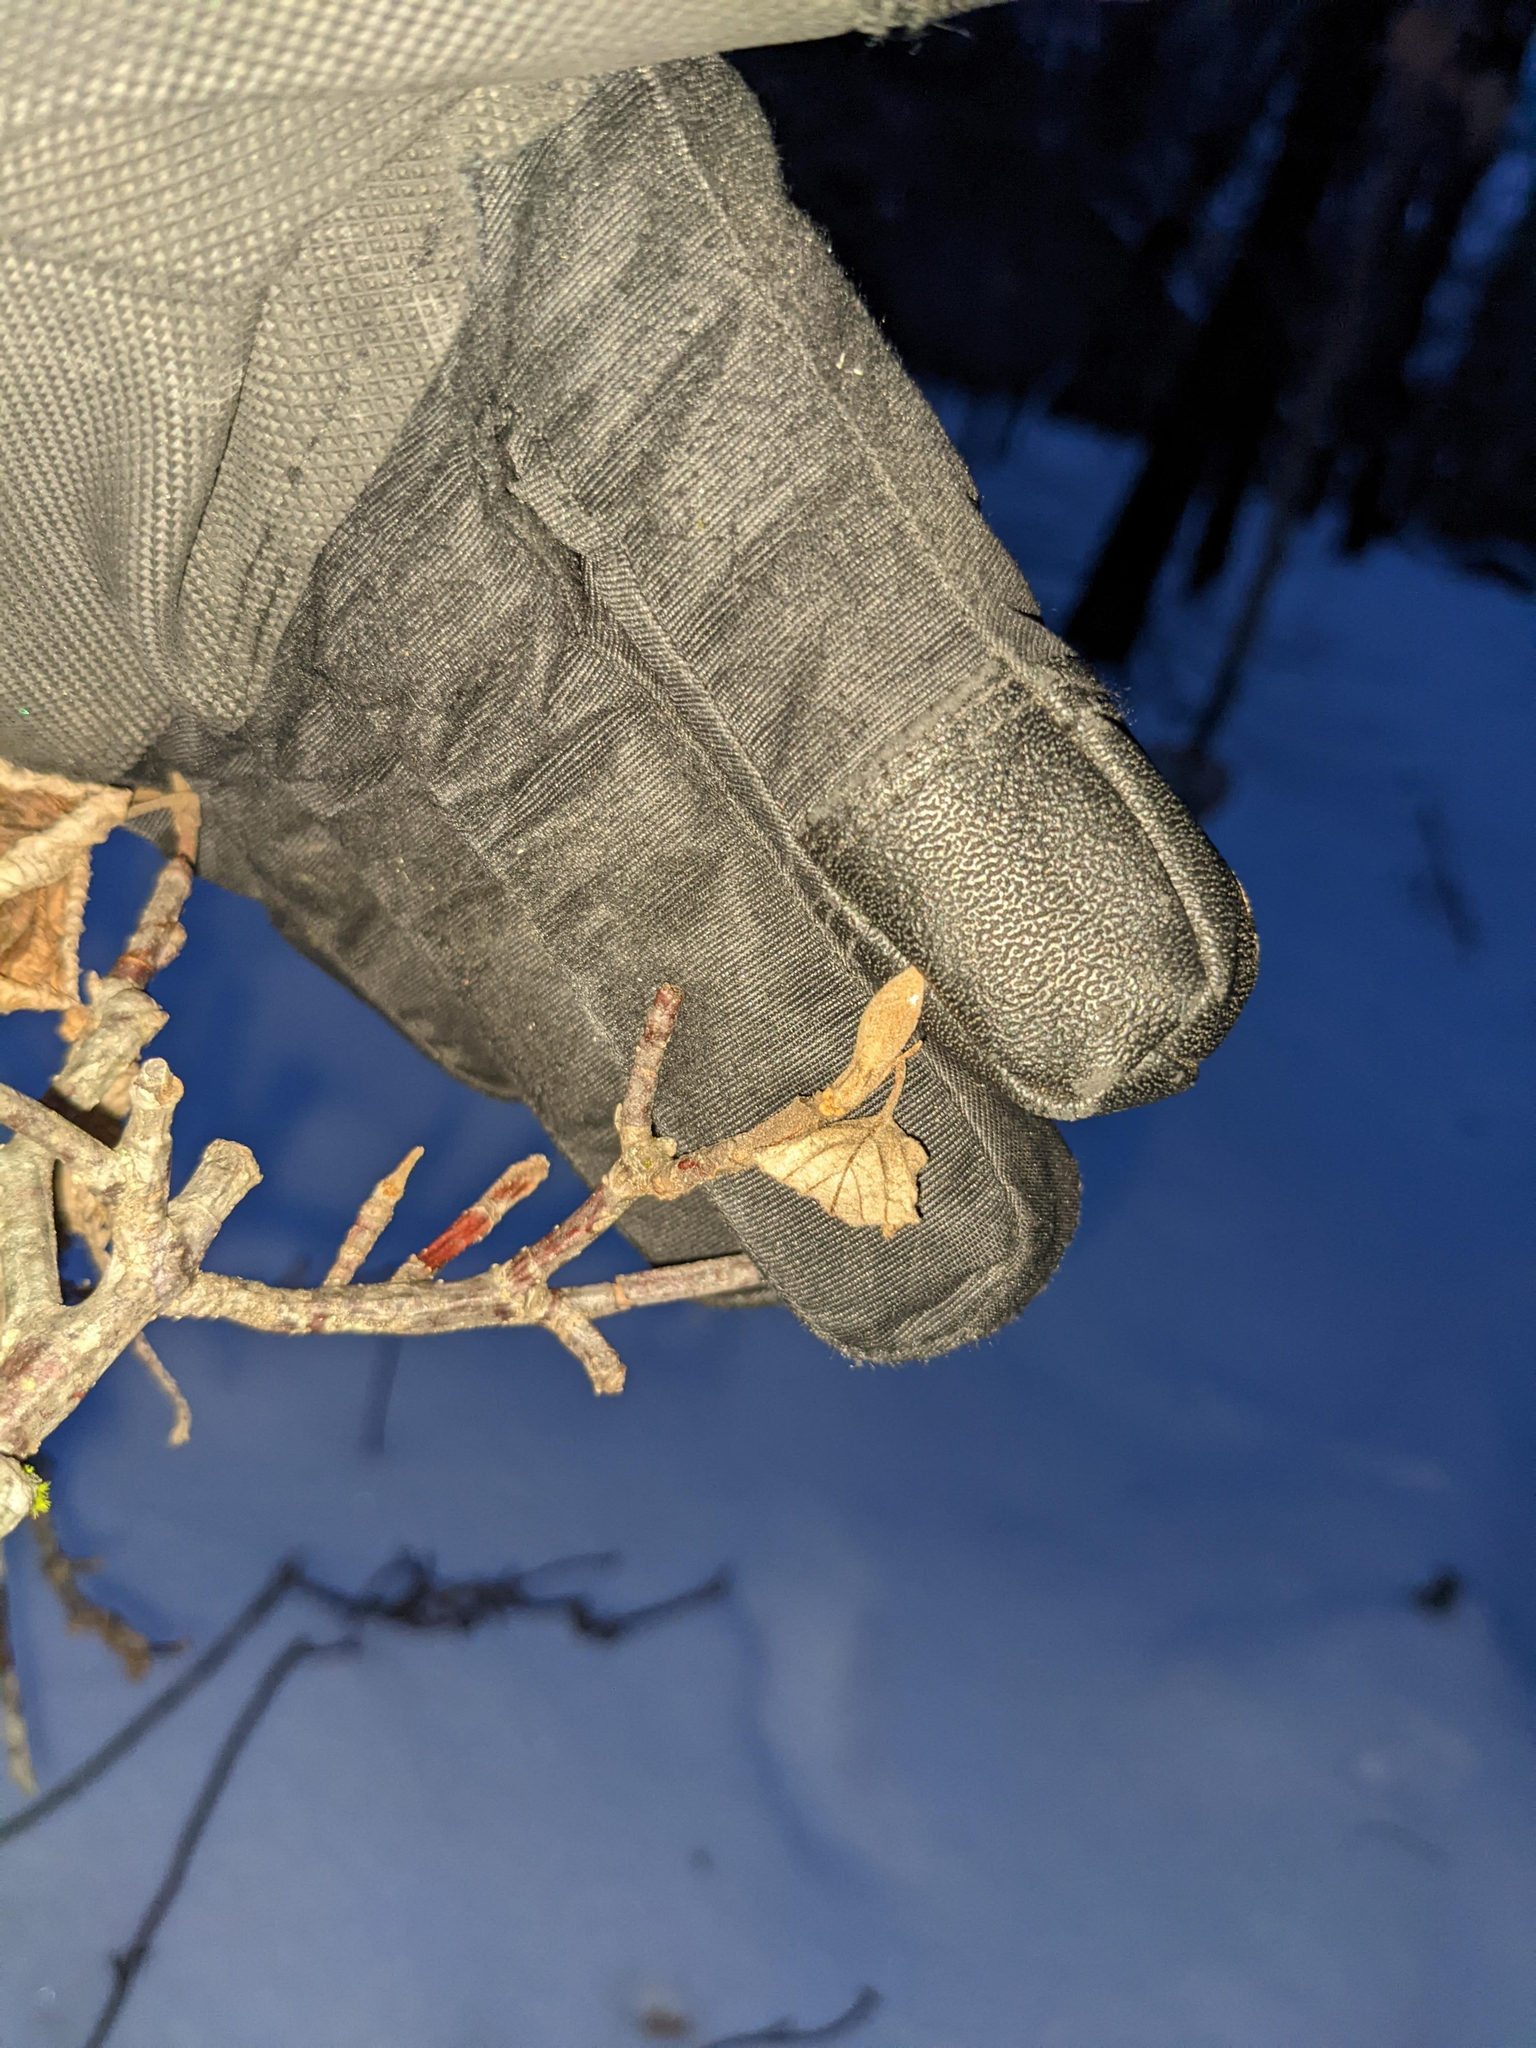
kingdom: Plantae
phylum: Tracheophyta
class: Magnoliopsida
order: Dipsacales
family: Viburnaceae
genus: Viburnum
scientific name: Viburnum lantanoides
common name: Hobblebush
